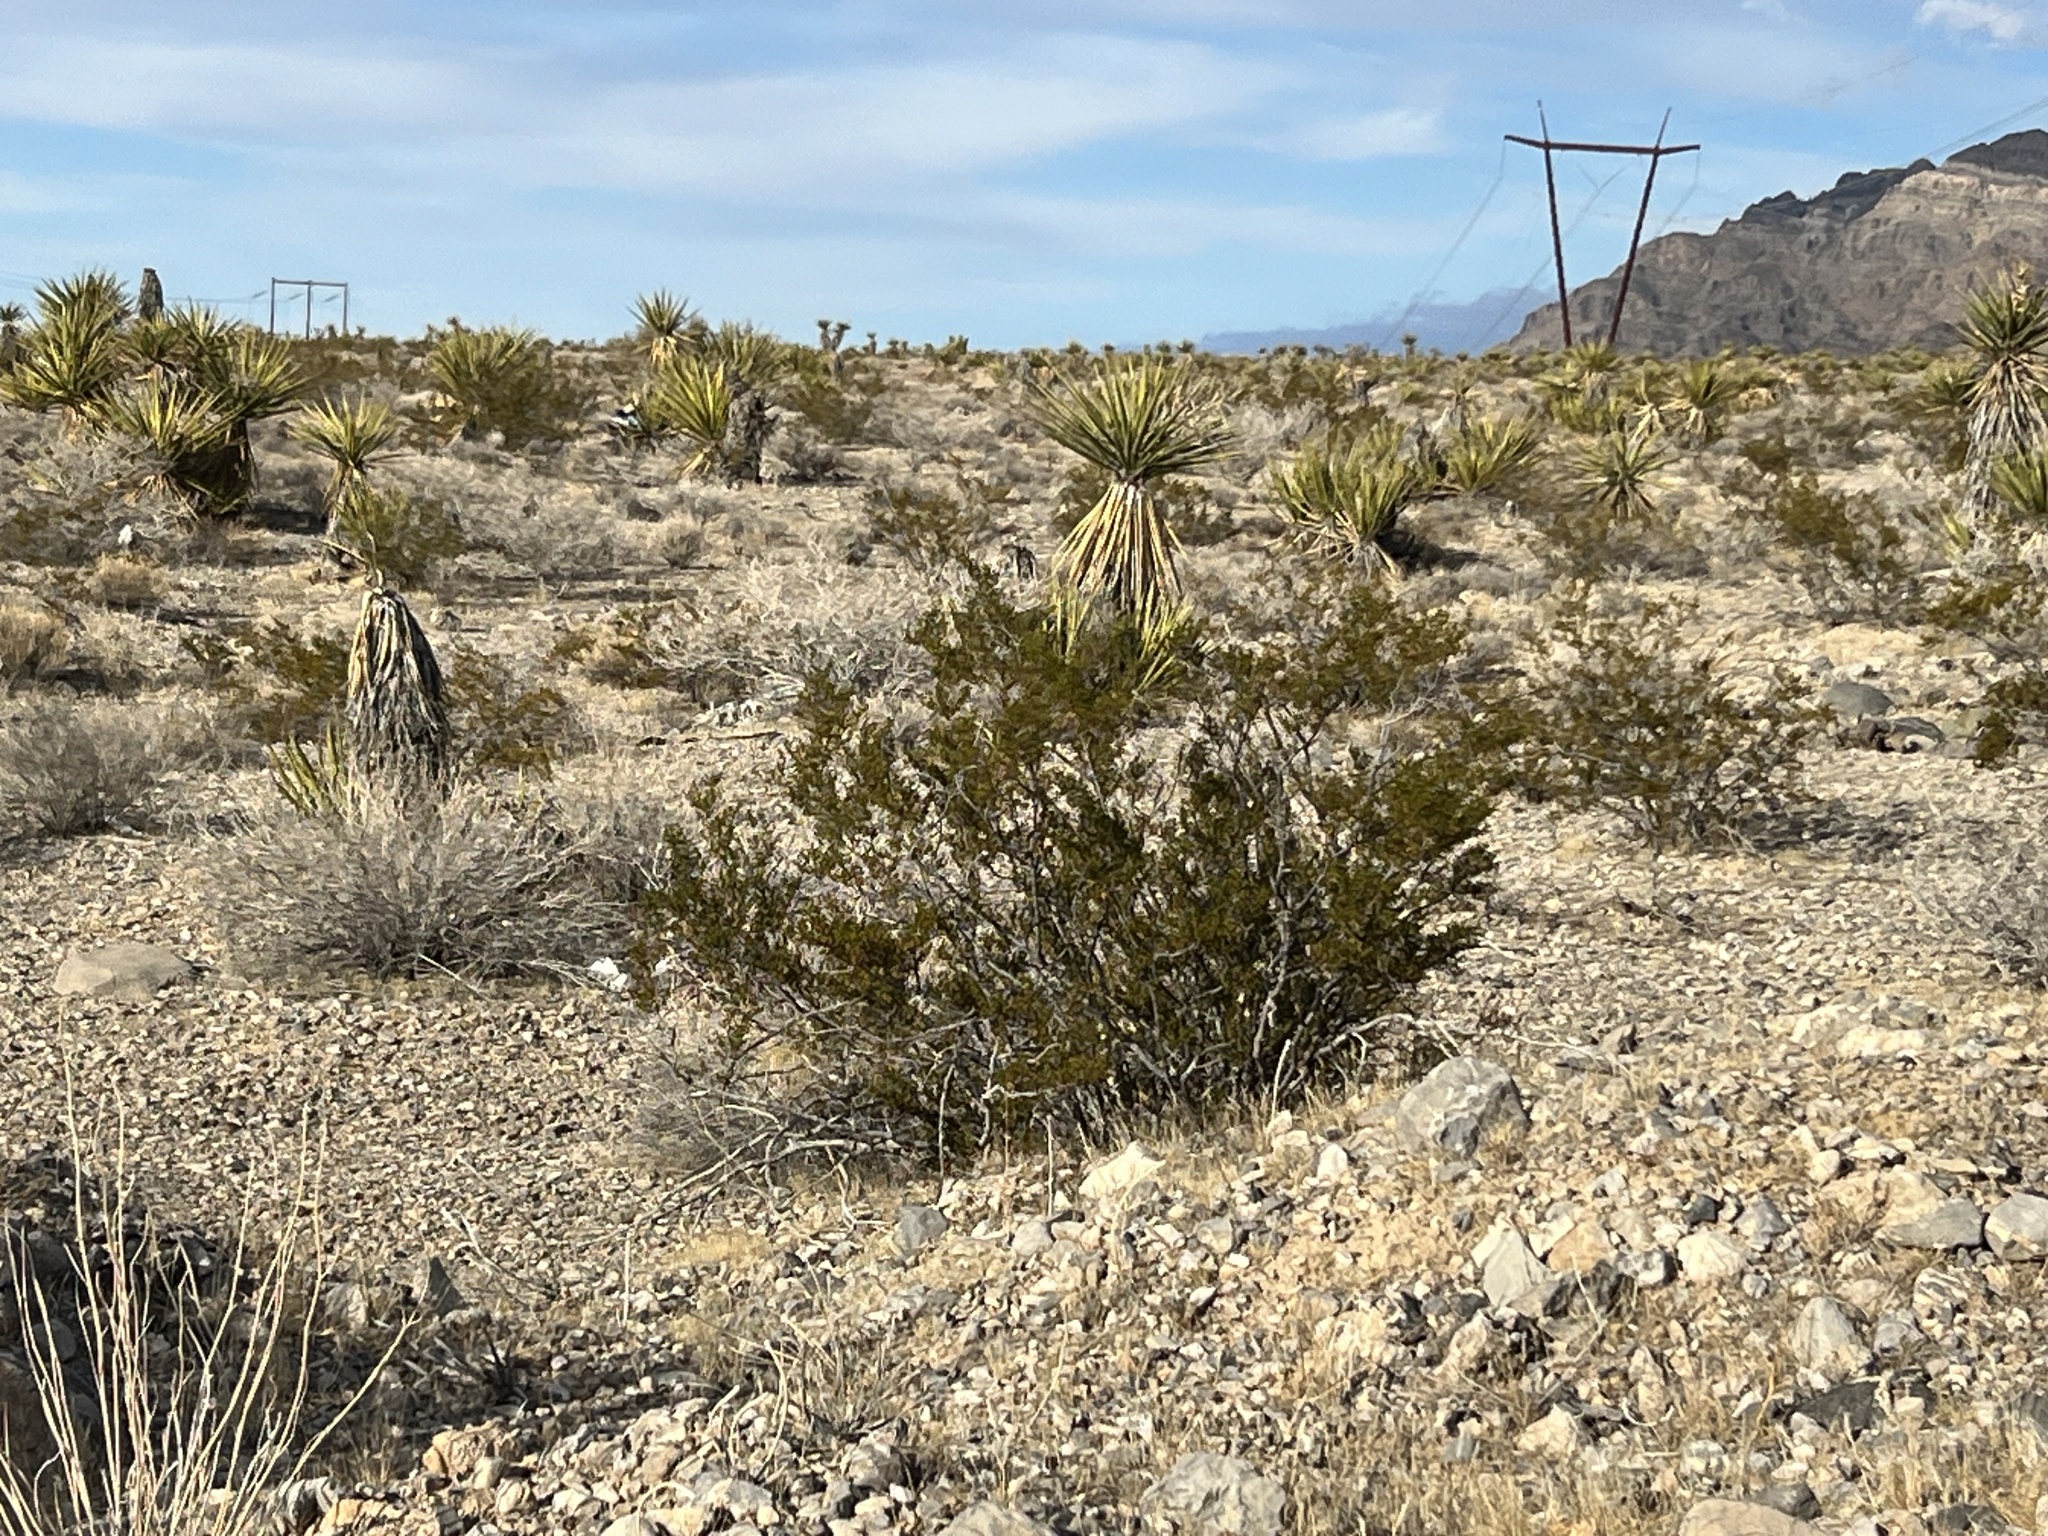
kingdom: Plantae
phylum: Tracheophyta
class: Magnoliopsida
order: Zygophyllales
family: Zygophyllaceae
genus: Larrea
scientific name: Larrea tridentata
